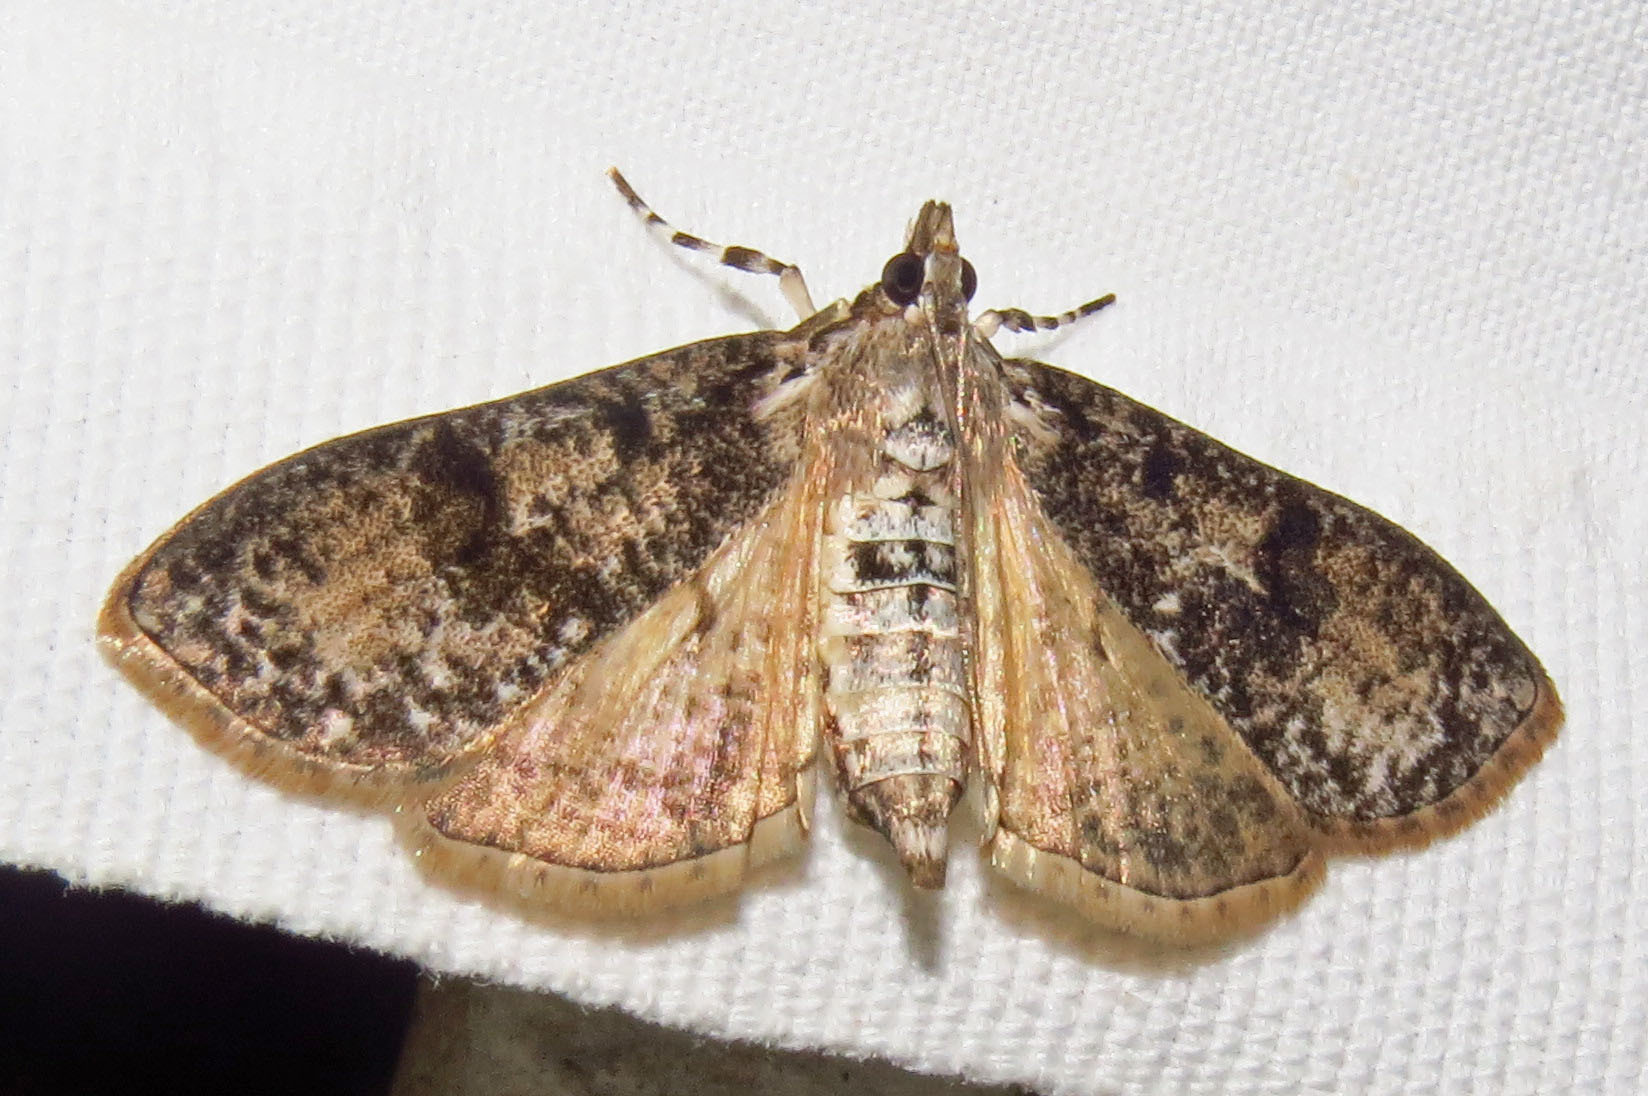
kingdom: Animalia
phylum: Arthropoda
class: Insecta
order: Lepidoptera
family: Crambidae
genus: Palpita
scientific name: Palpita magniferalis
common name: Splendid palpita moth
